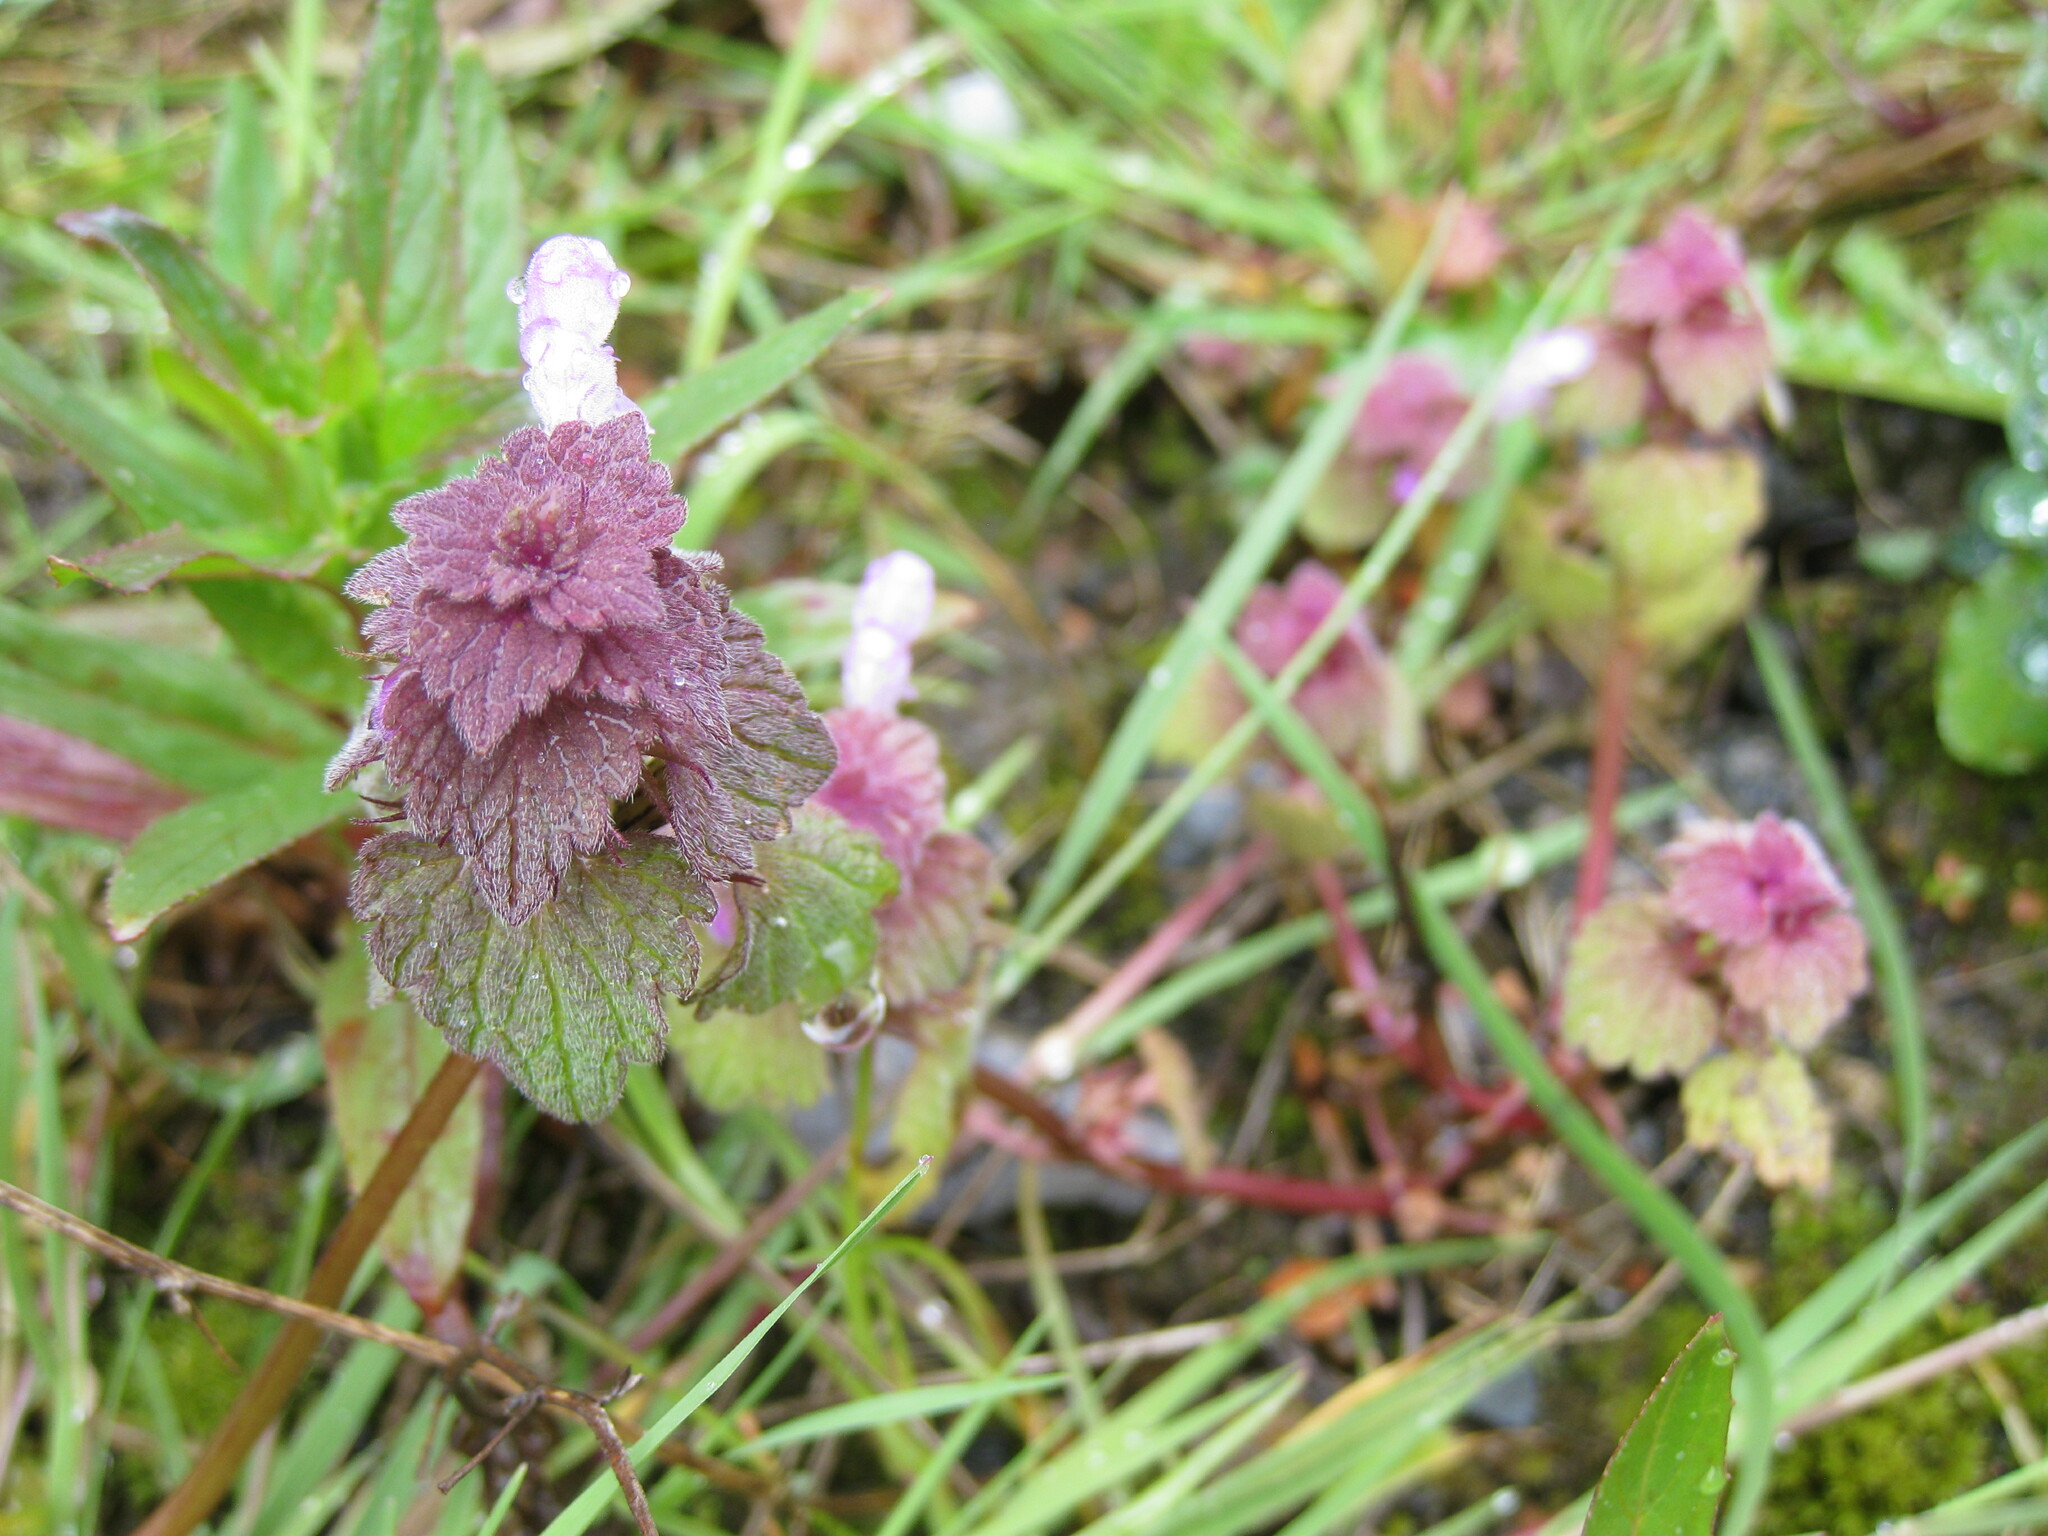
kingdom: Plantae
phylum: Tracheophyta
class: Magnoliopsida
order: Lamiales
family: Lamiaceae
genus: Lamium
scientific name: Lamium purpureum
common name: Red dead-nettle
